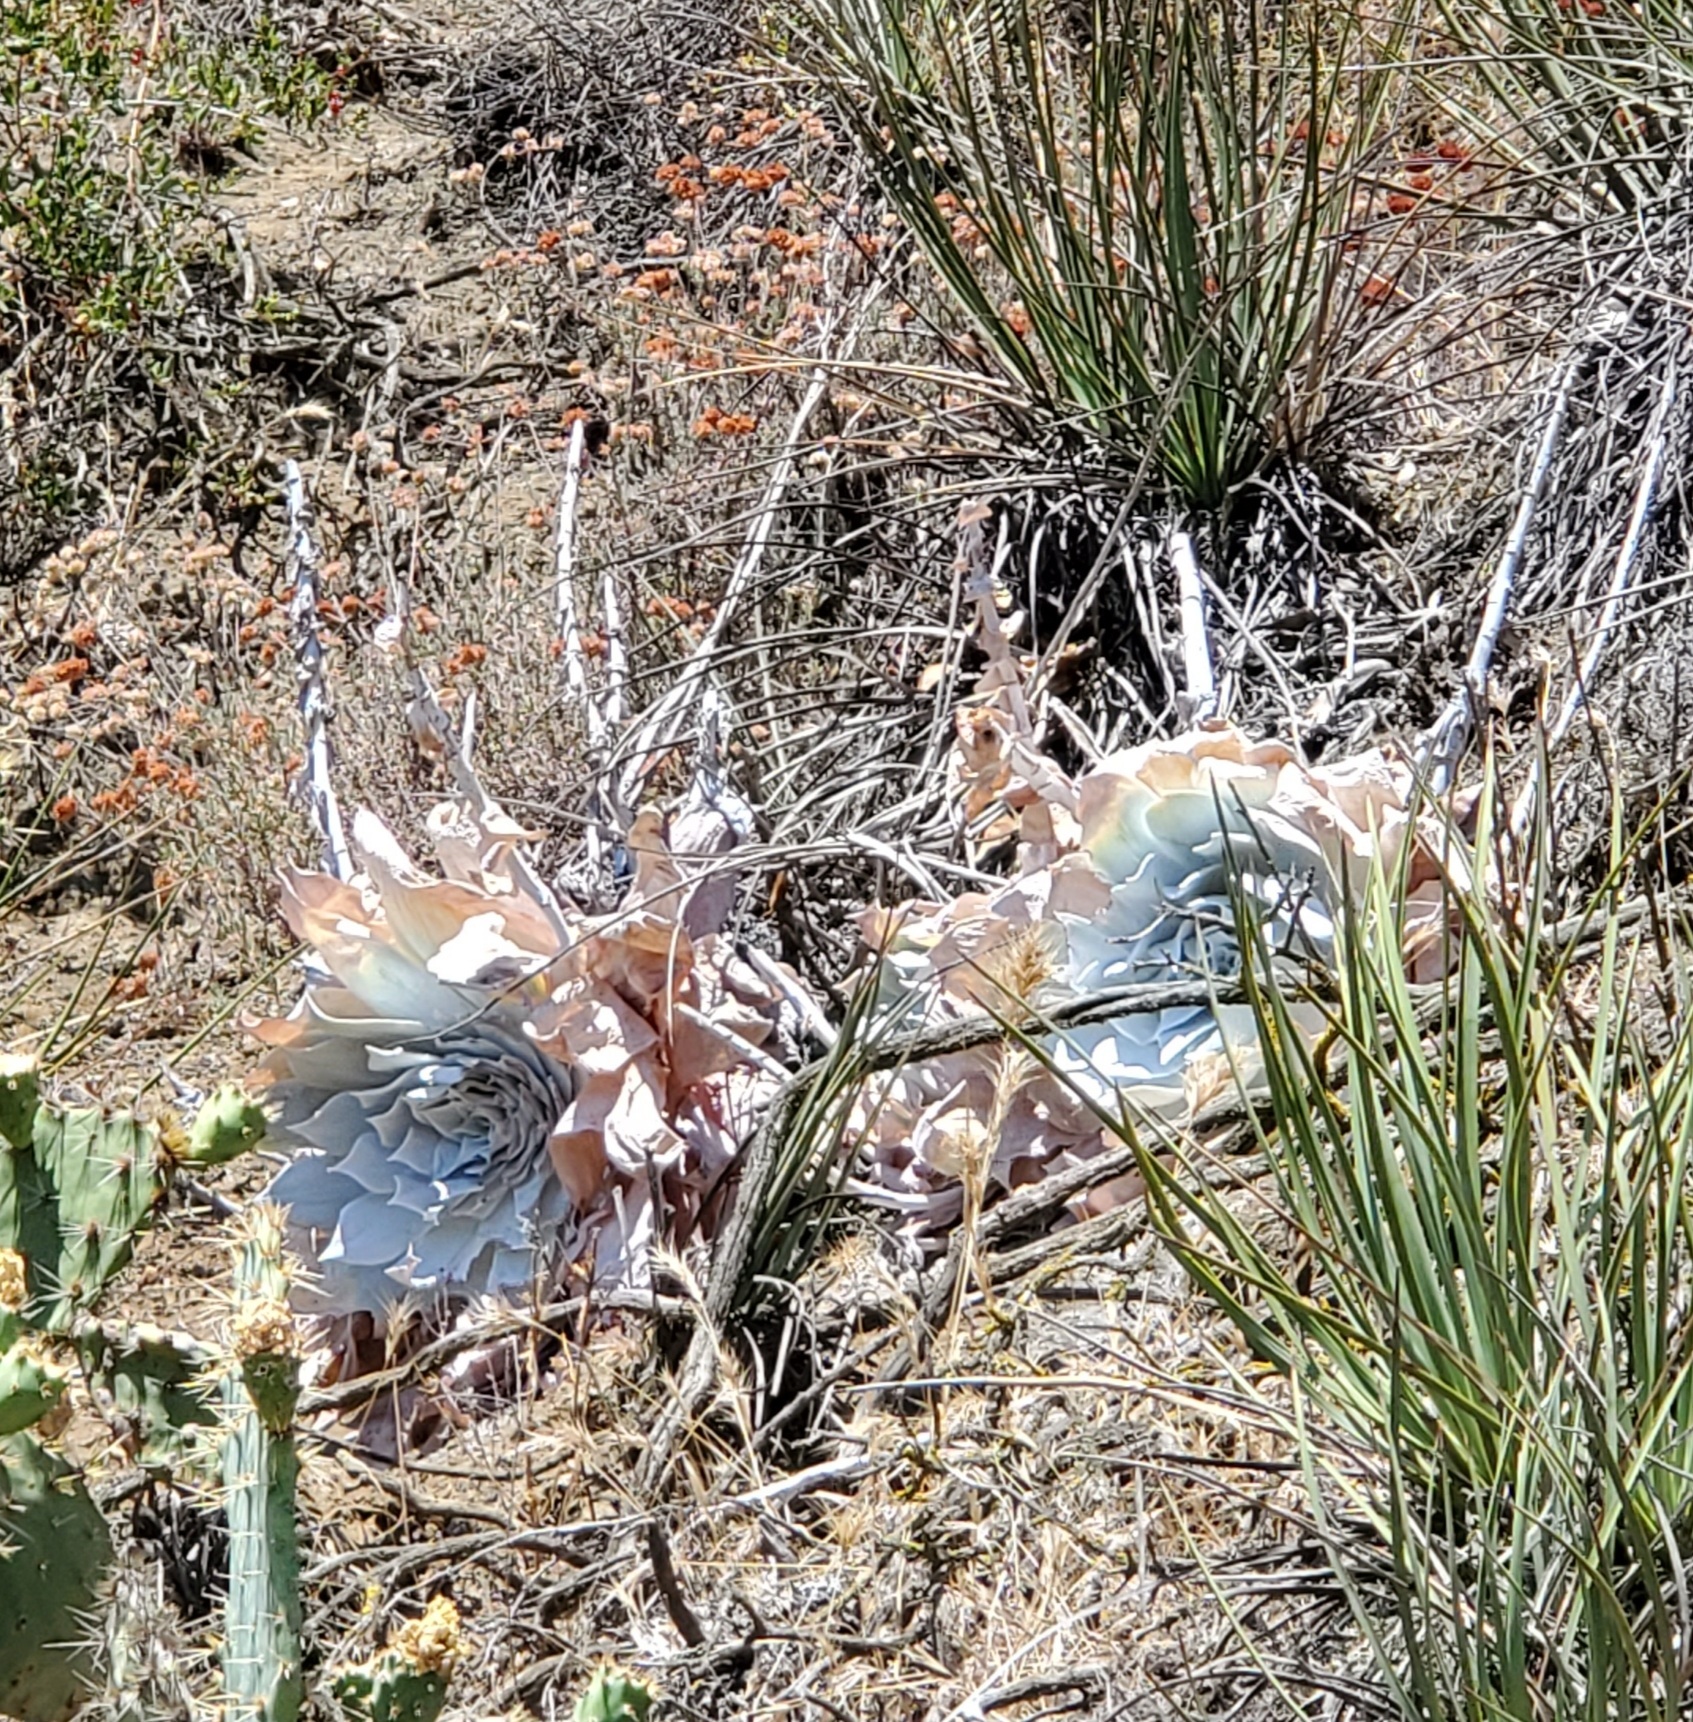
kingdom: Plantae
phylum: Tracheophyta
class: Magnoliopsida
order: Saxifragales
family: Crassulaceae
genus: Dudleya
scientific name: Dudleya pulverulenta
